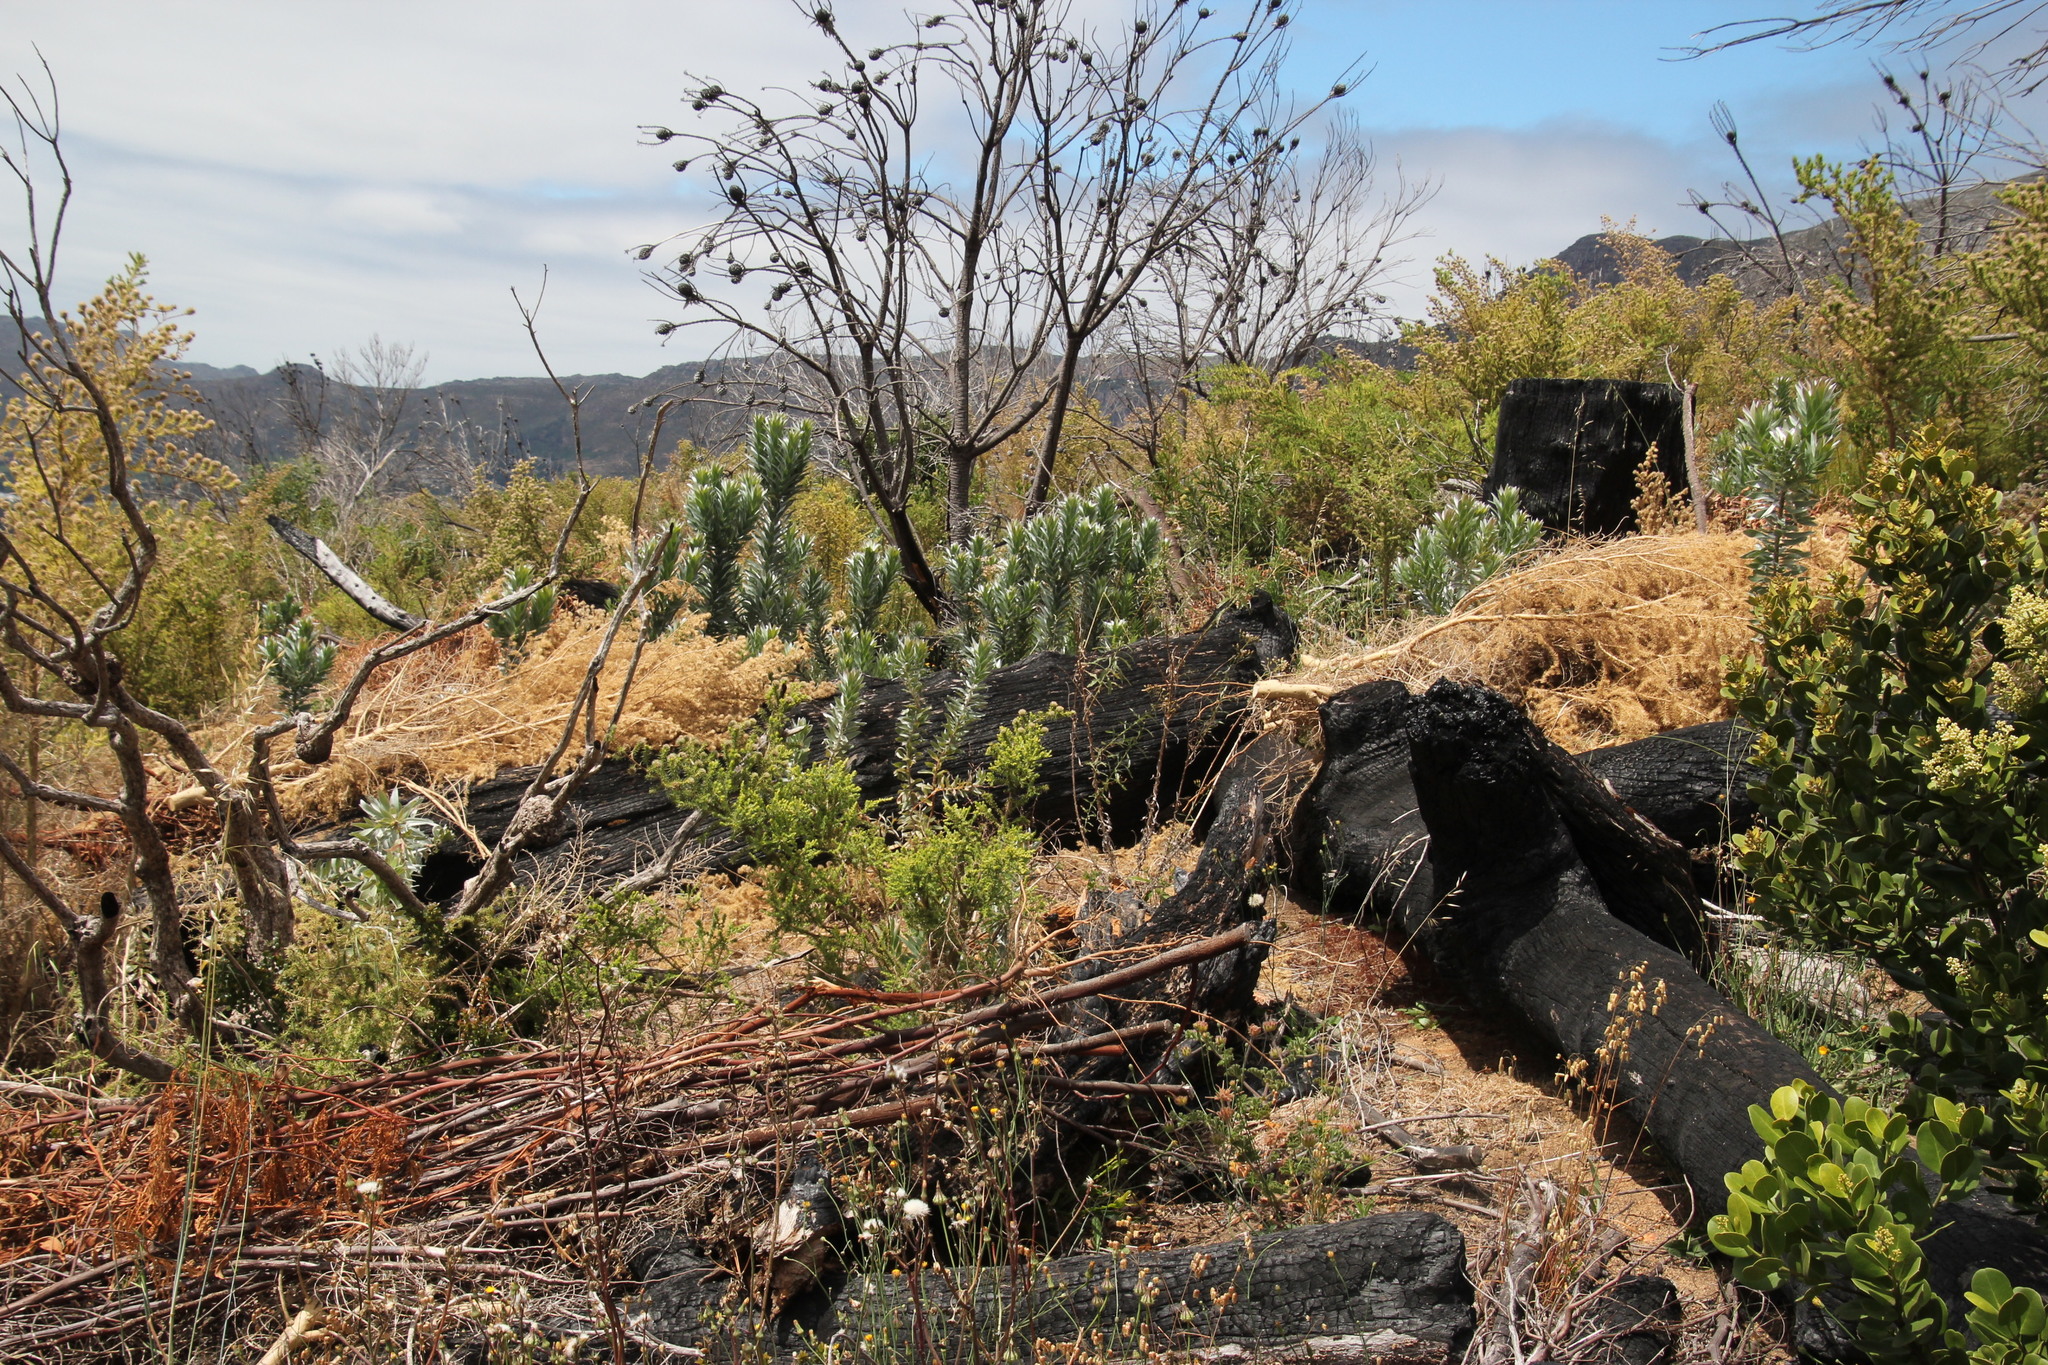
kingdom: Plantae
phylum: Tracheophyta
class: Magnoliopsida
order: Fabales
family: Fabaceae
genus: Aspalathus
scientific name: Aspalathus chenopoda
